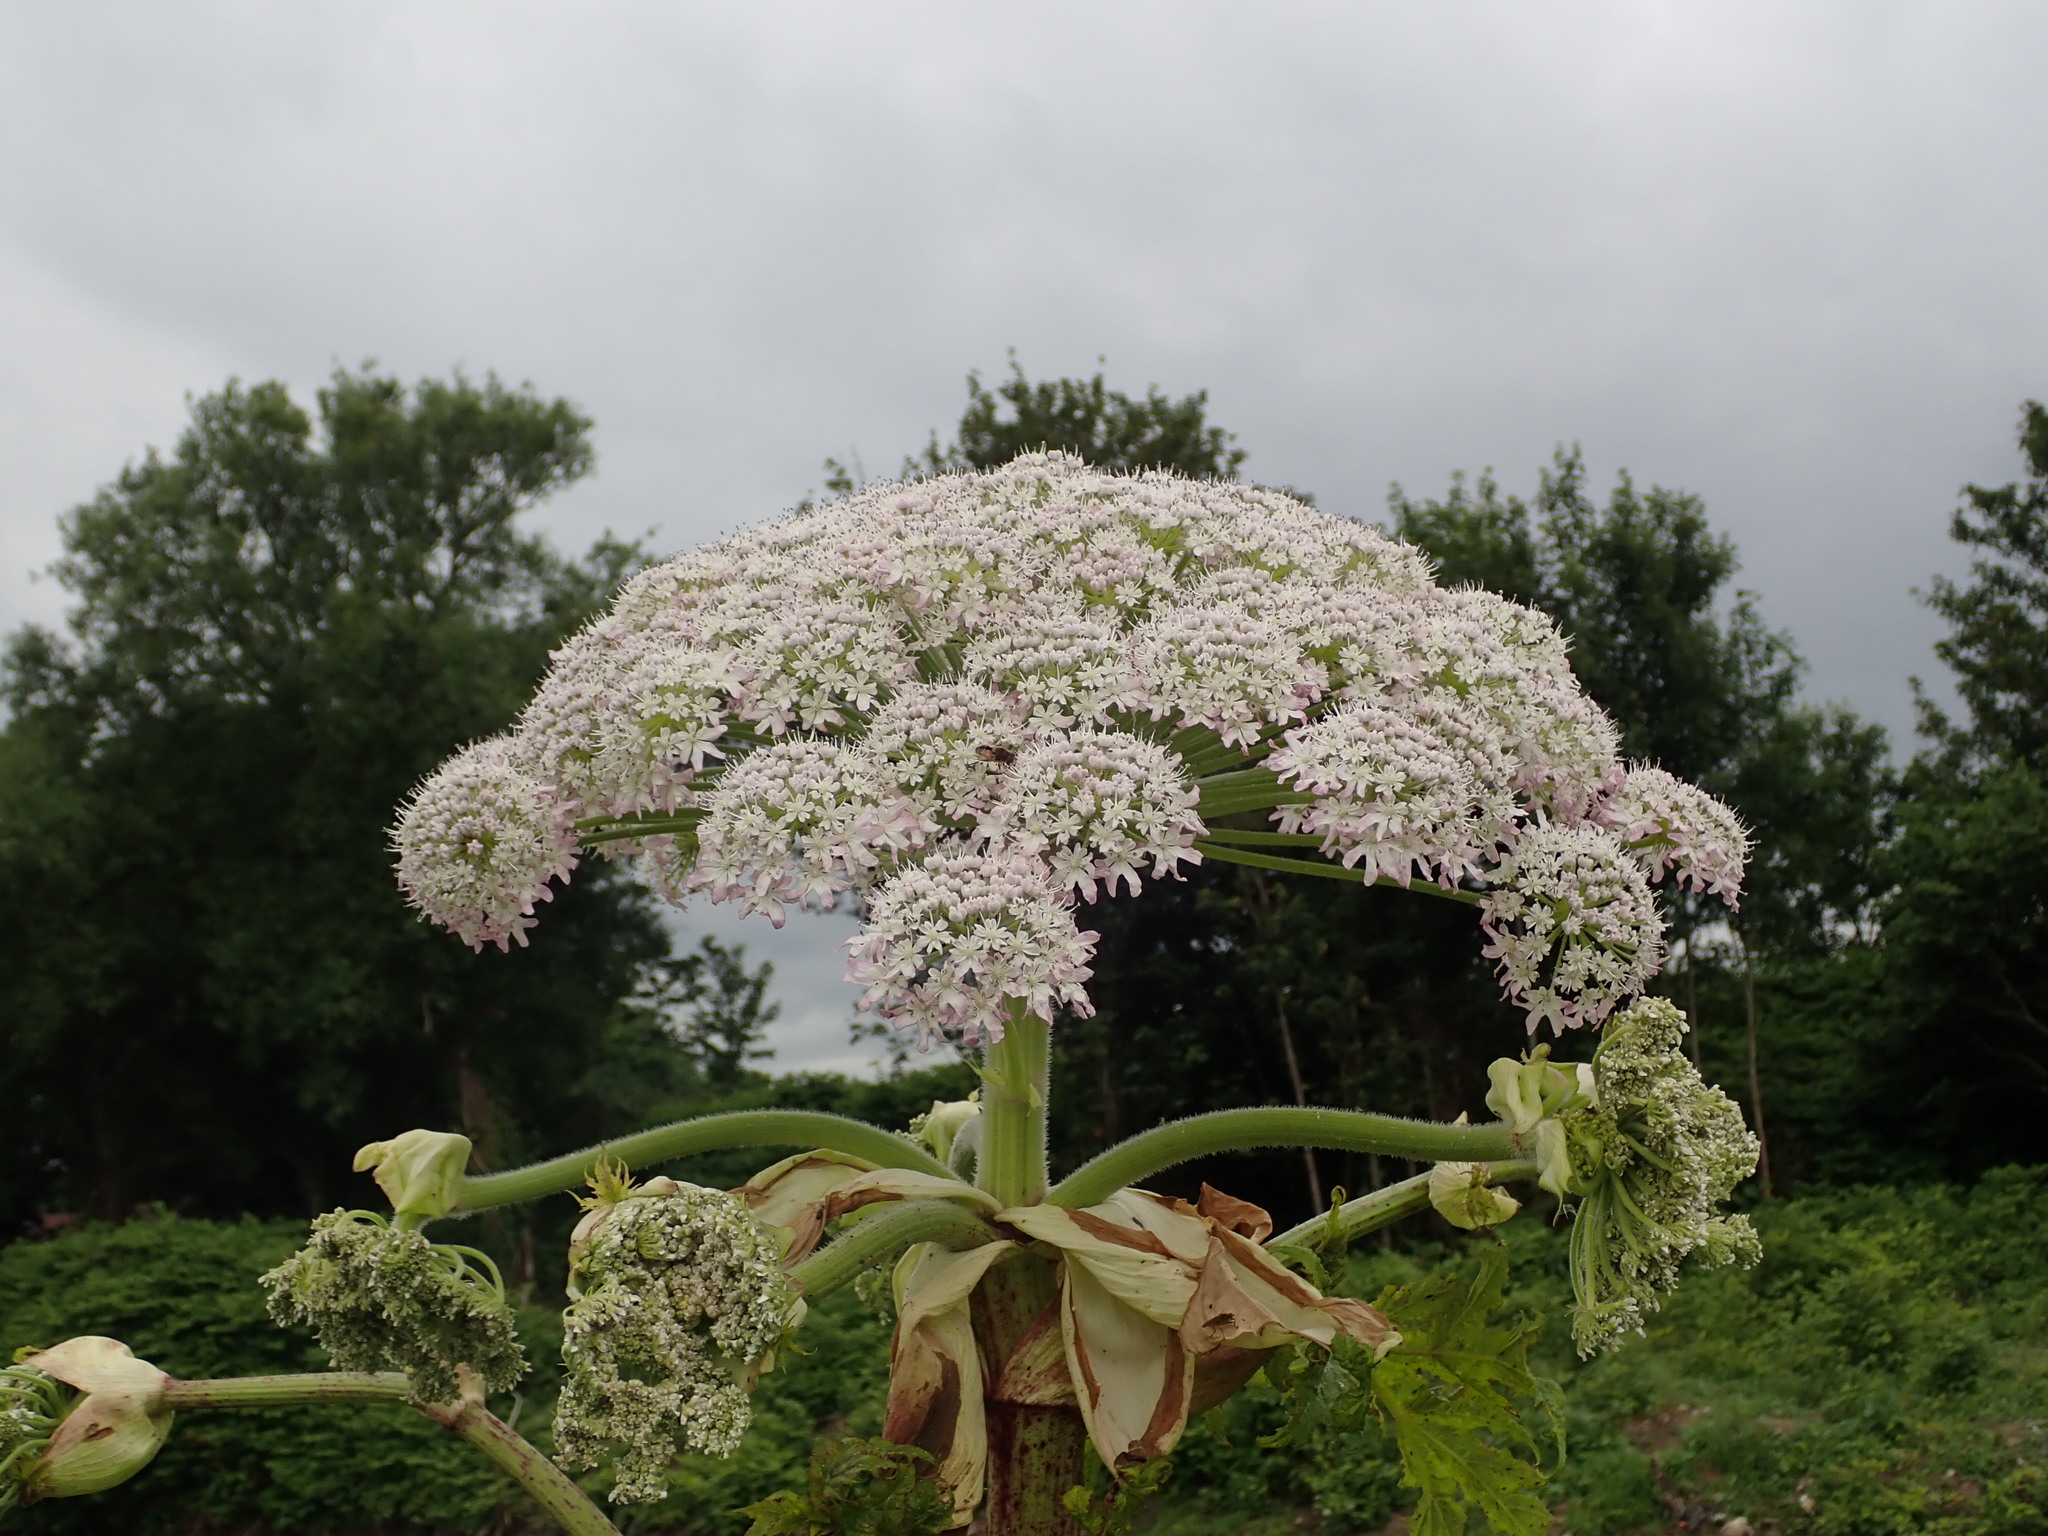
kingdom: Plantae
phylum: Tracheophyta
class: Magnoliopsida
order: Apiales
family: Apiaceae
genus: Heracleum
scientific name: Heracleum mantegazzianum
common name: Giant hogweed
